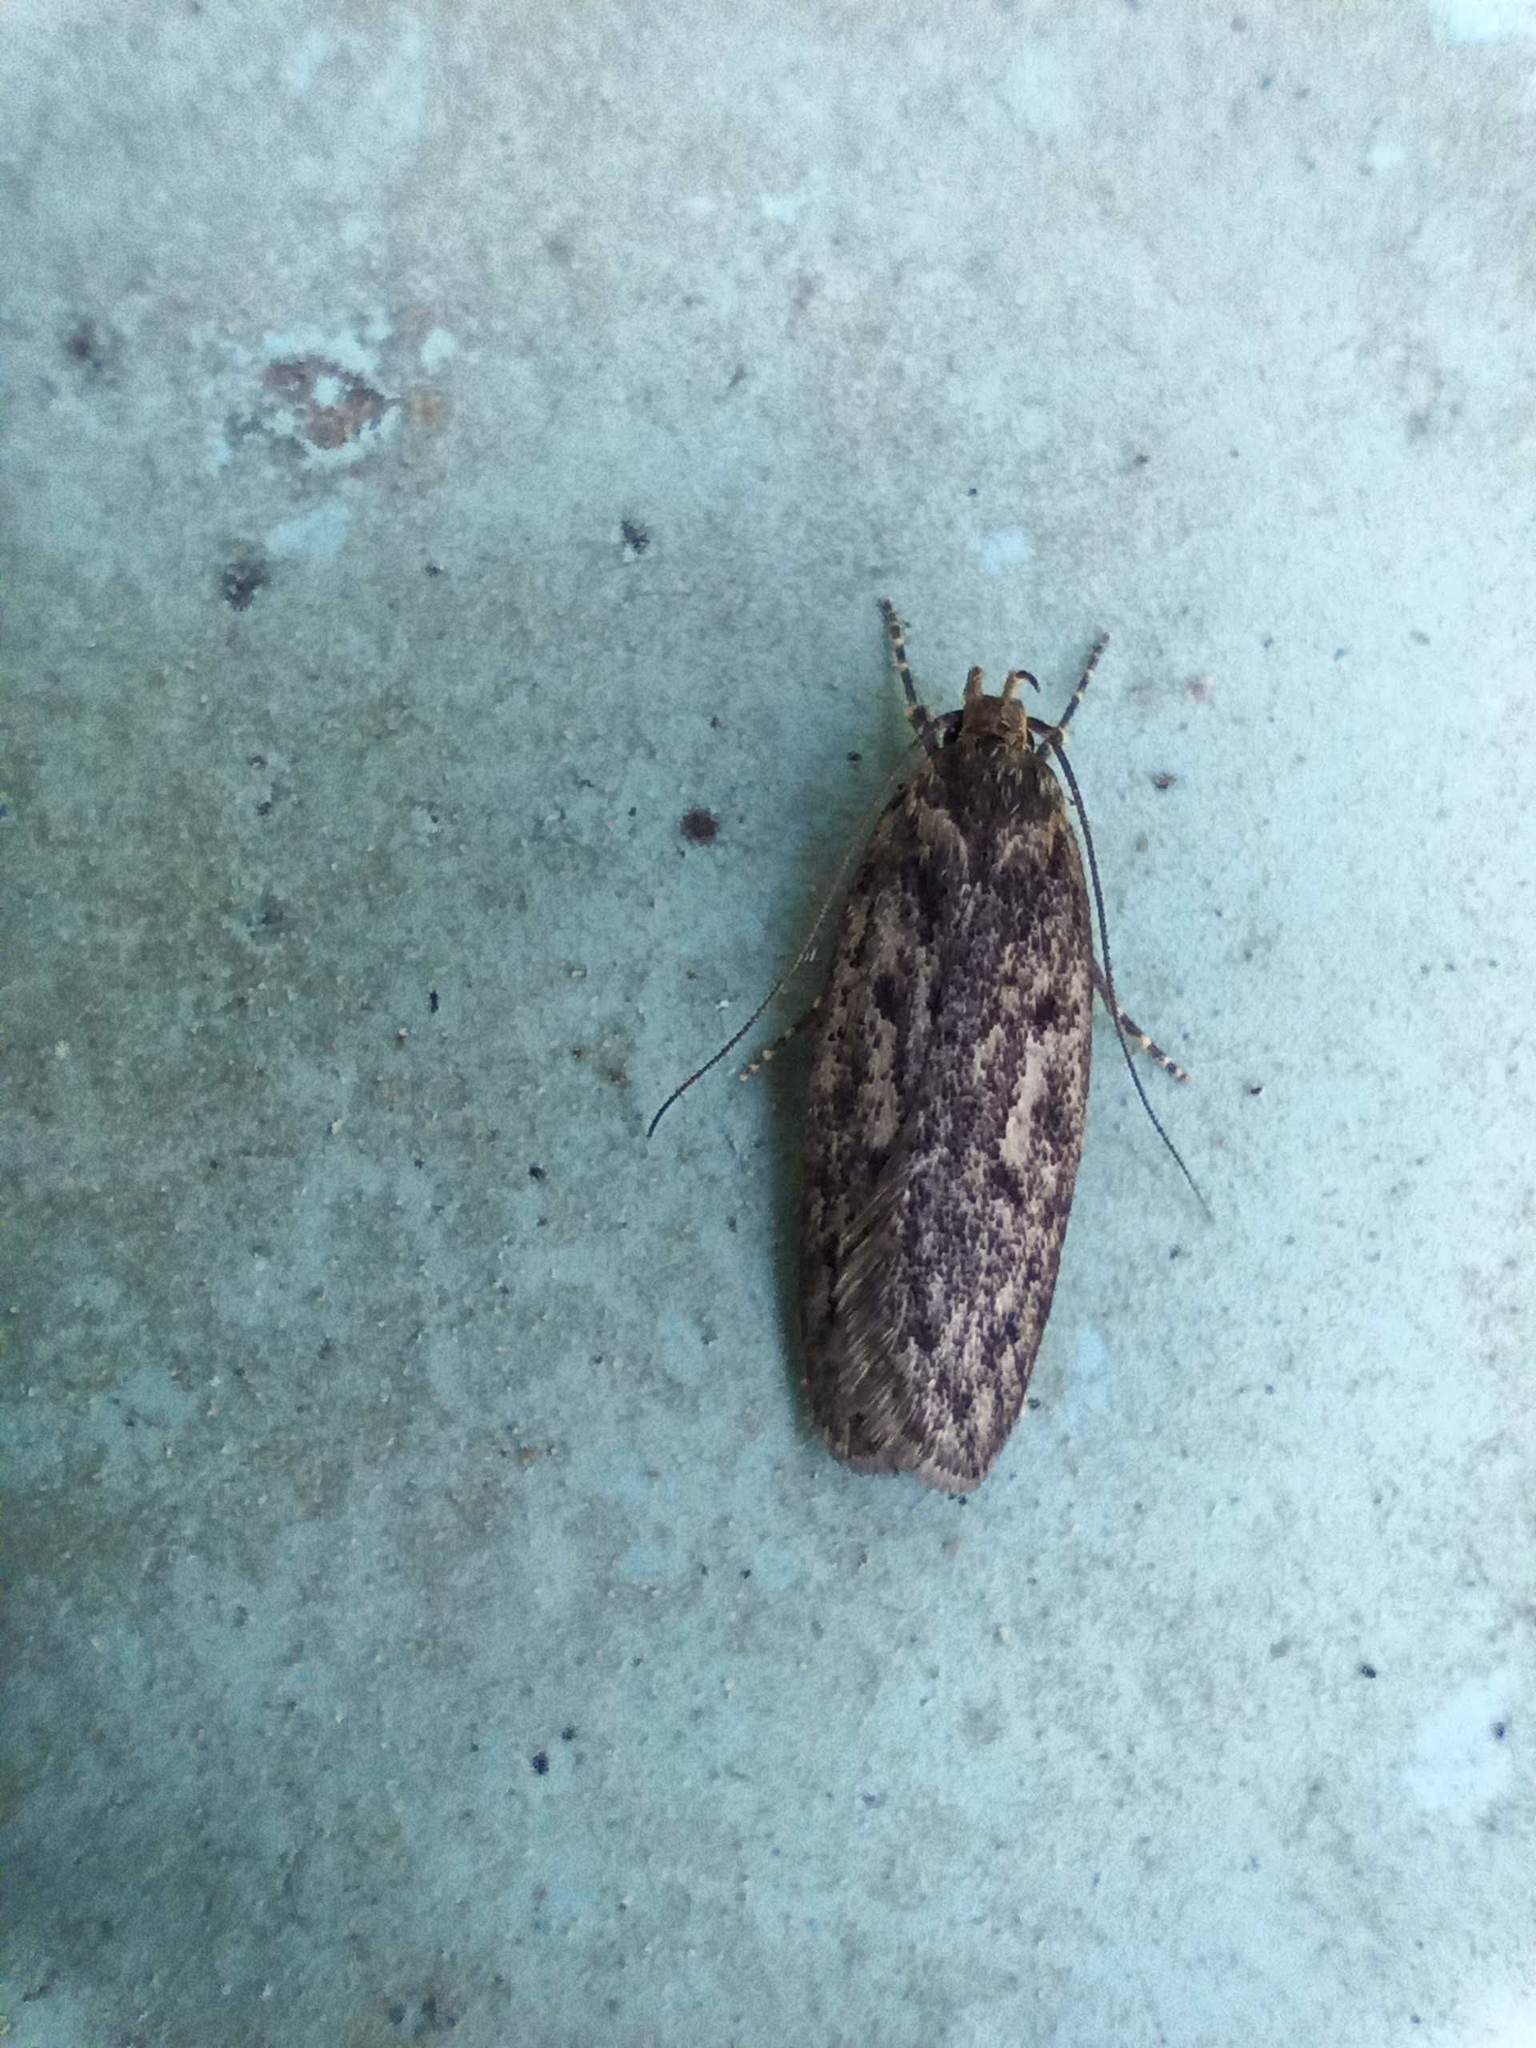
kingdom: Animalia
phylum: Arthropoda
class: Insecta
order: Lepidoptera
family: Oecophoridae
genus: Hofmannophila
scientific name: Hofmannophila pseudospretella
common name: Brown house moth
